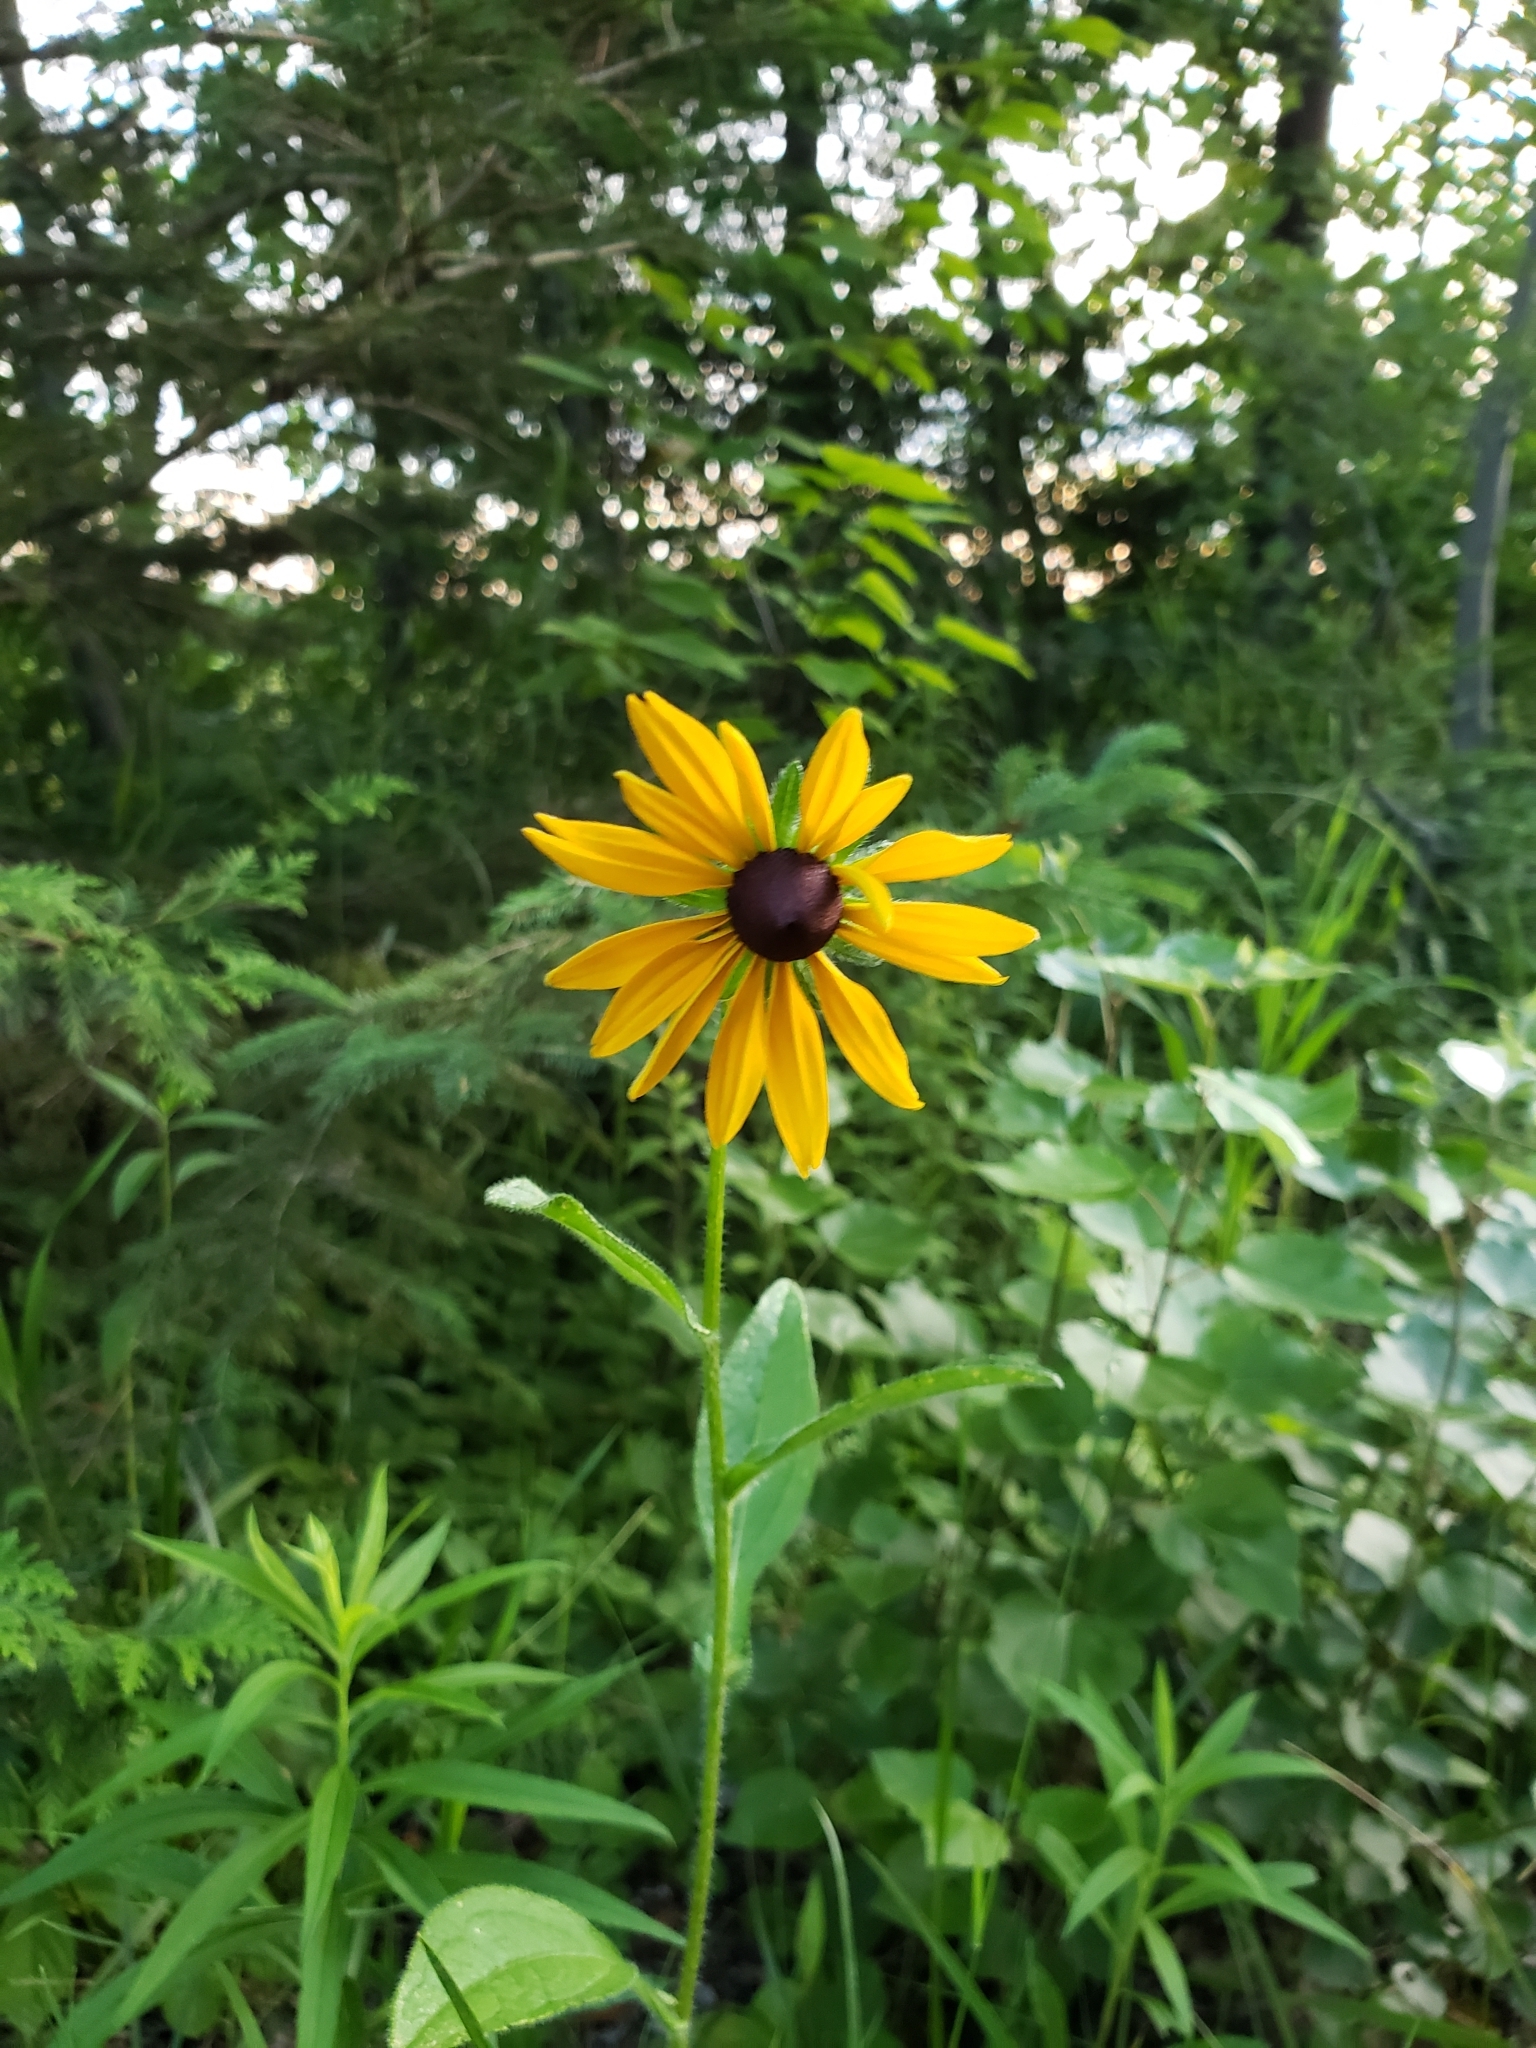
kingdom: Plantae
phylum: Tracheophyta
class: Magnoliopsida
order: Asterales
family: Asteraceae
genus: Rudbeckia
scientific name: Rudbeckia hirta
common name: Black-eyed-susan
